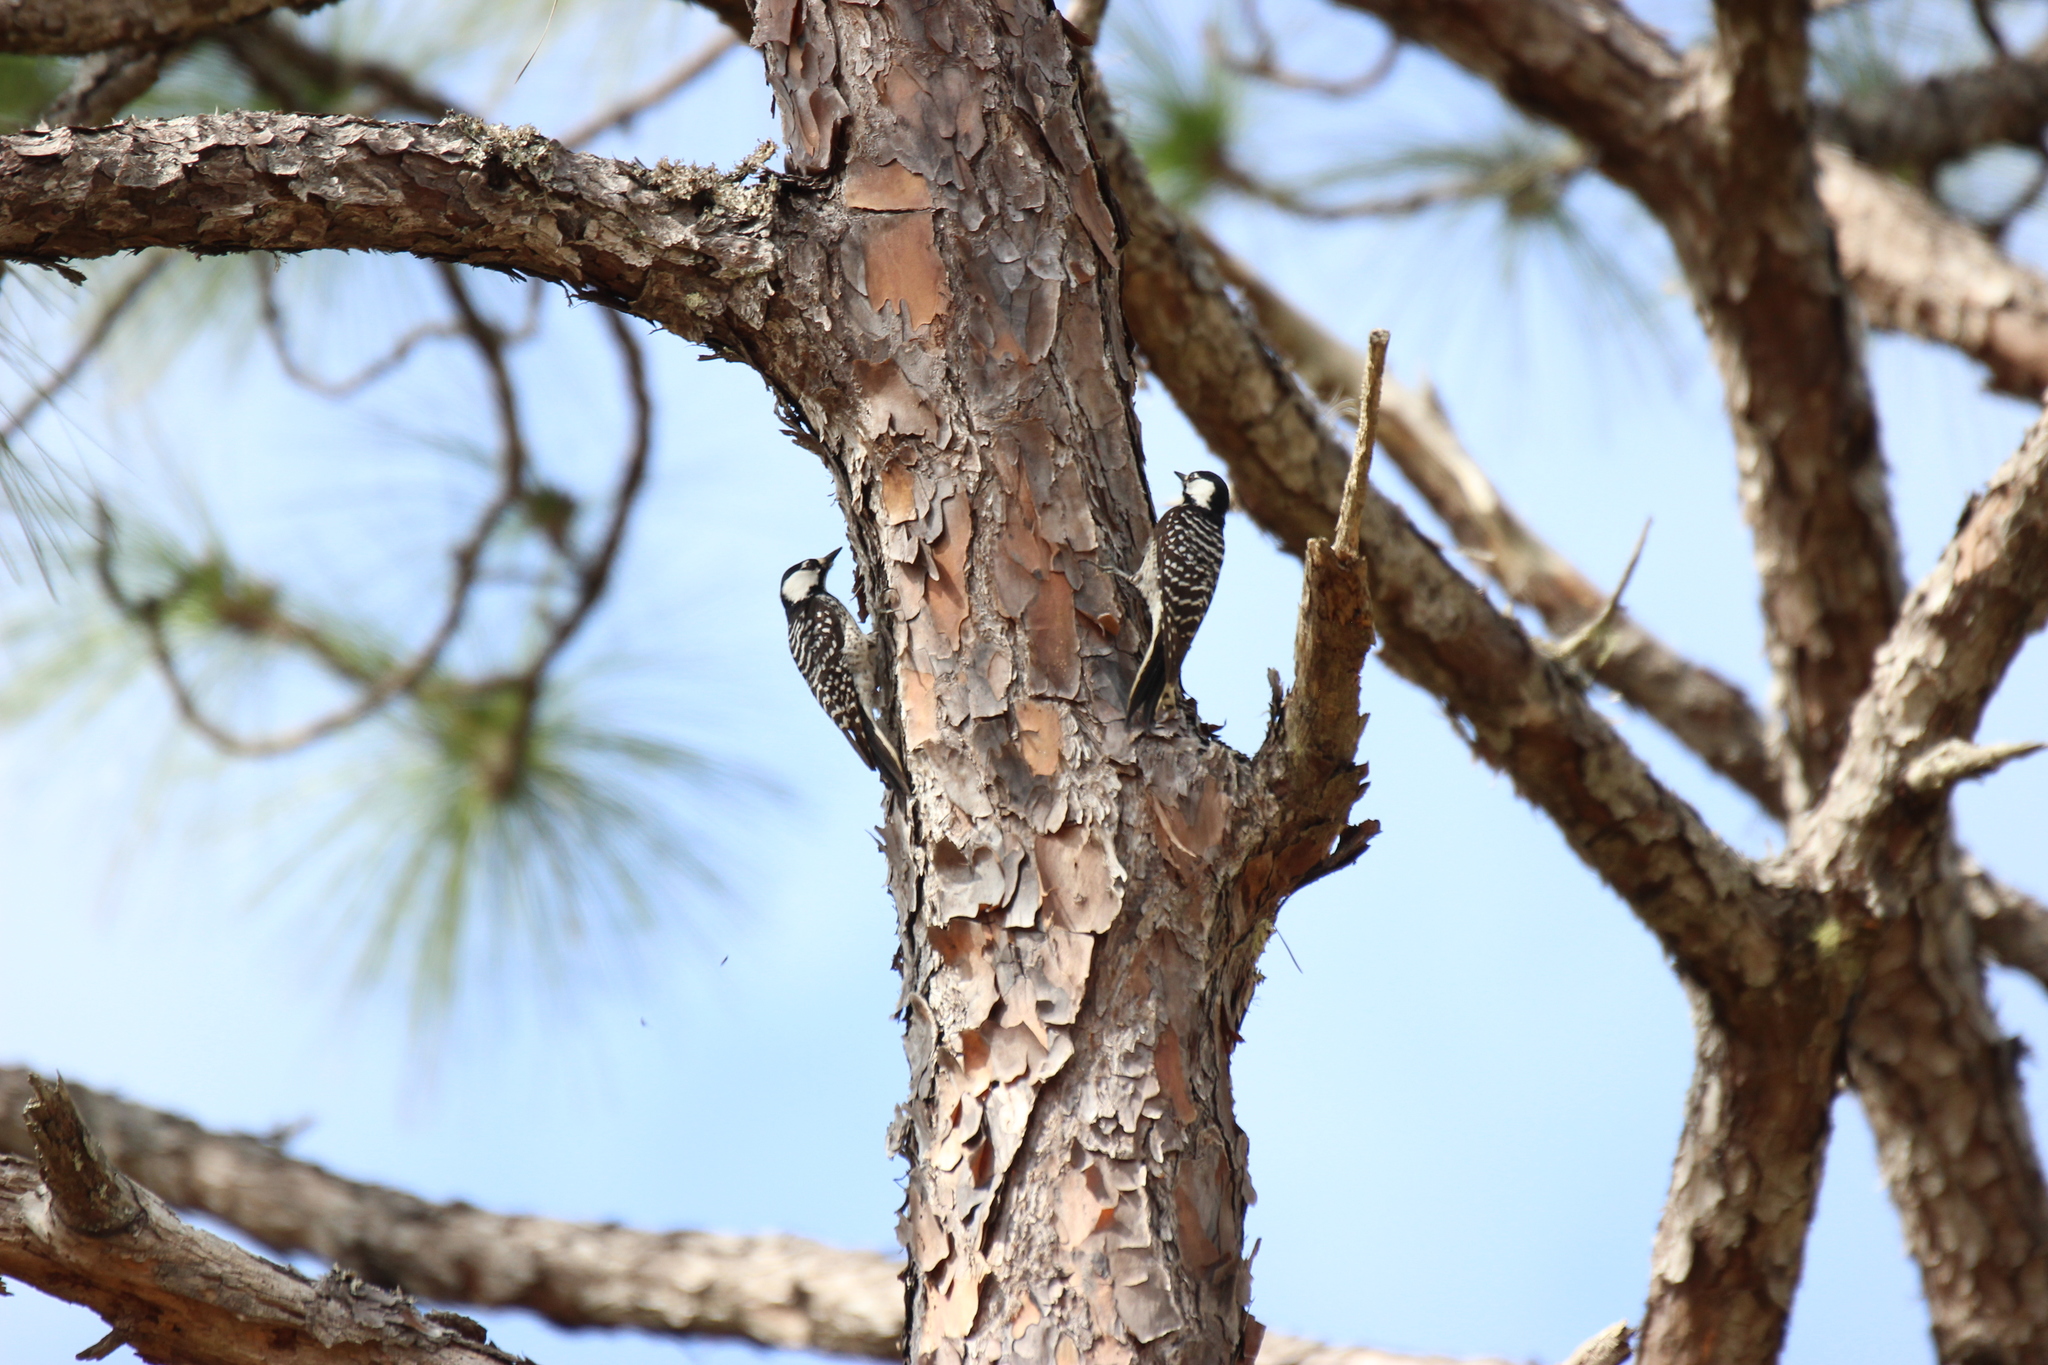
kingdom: Animalia
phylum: Chordata
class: Aves
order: Piciformes
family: Picidae
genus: Leuconotopicus
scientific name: Leuconotopicus borealis
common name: Red-cockaded woodpecker
